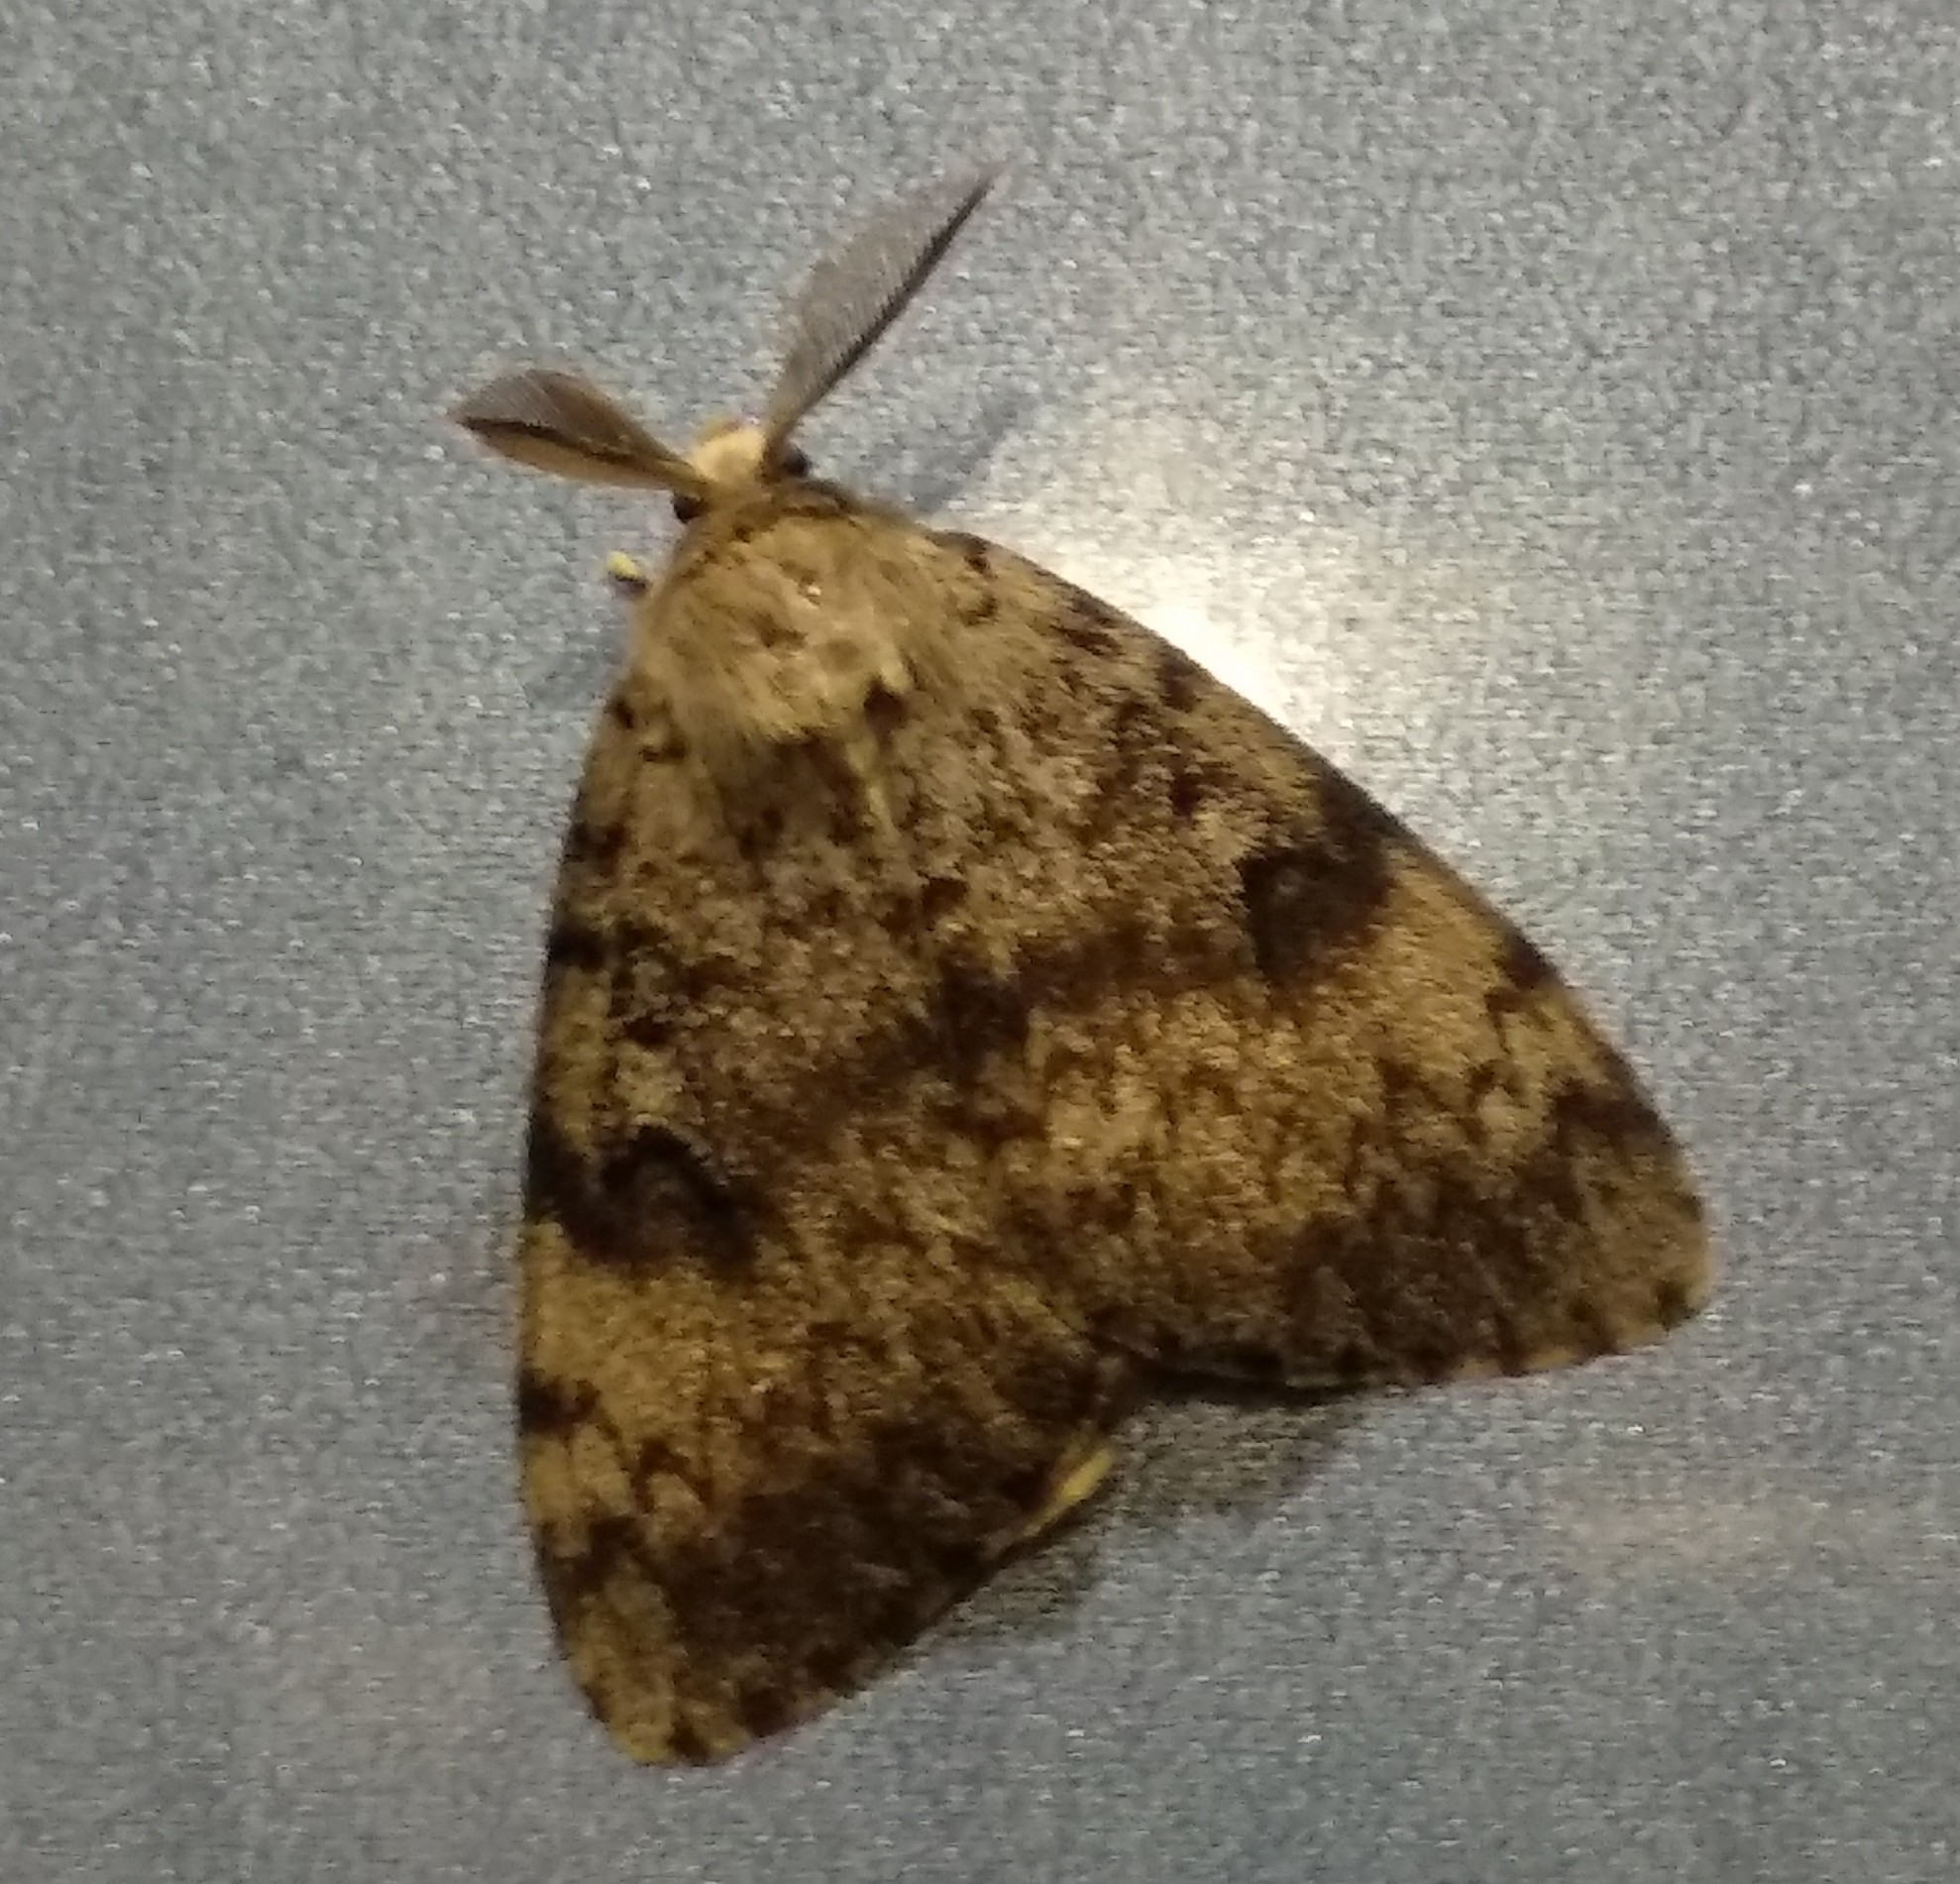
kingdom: Animalia
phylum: Arthropoda
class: Insecta
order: Lepidoptera
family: Erebidae
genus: Lymantria
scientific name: Lymantria dispar
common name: Gypsy moth
